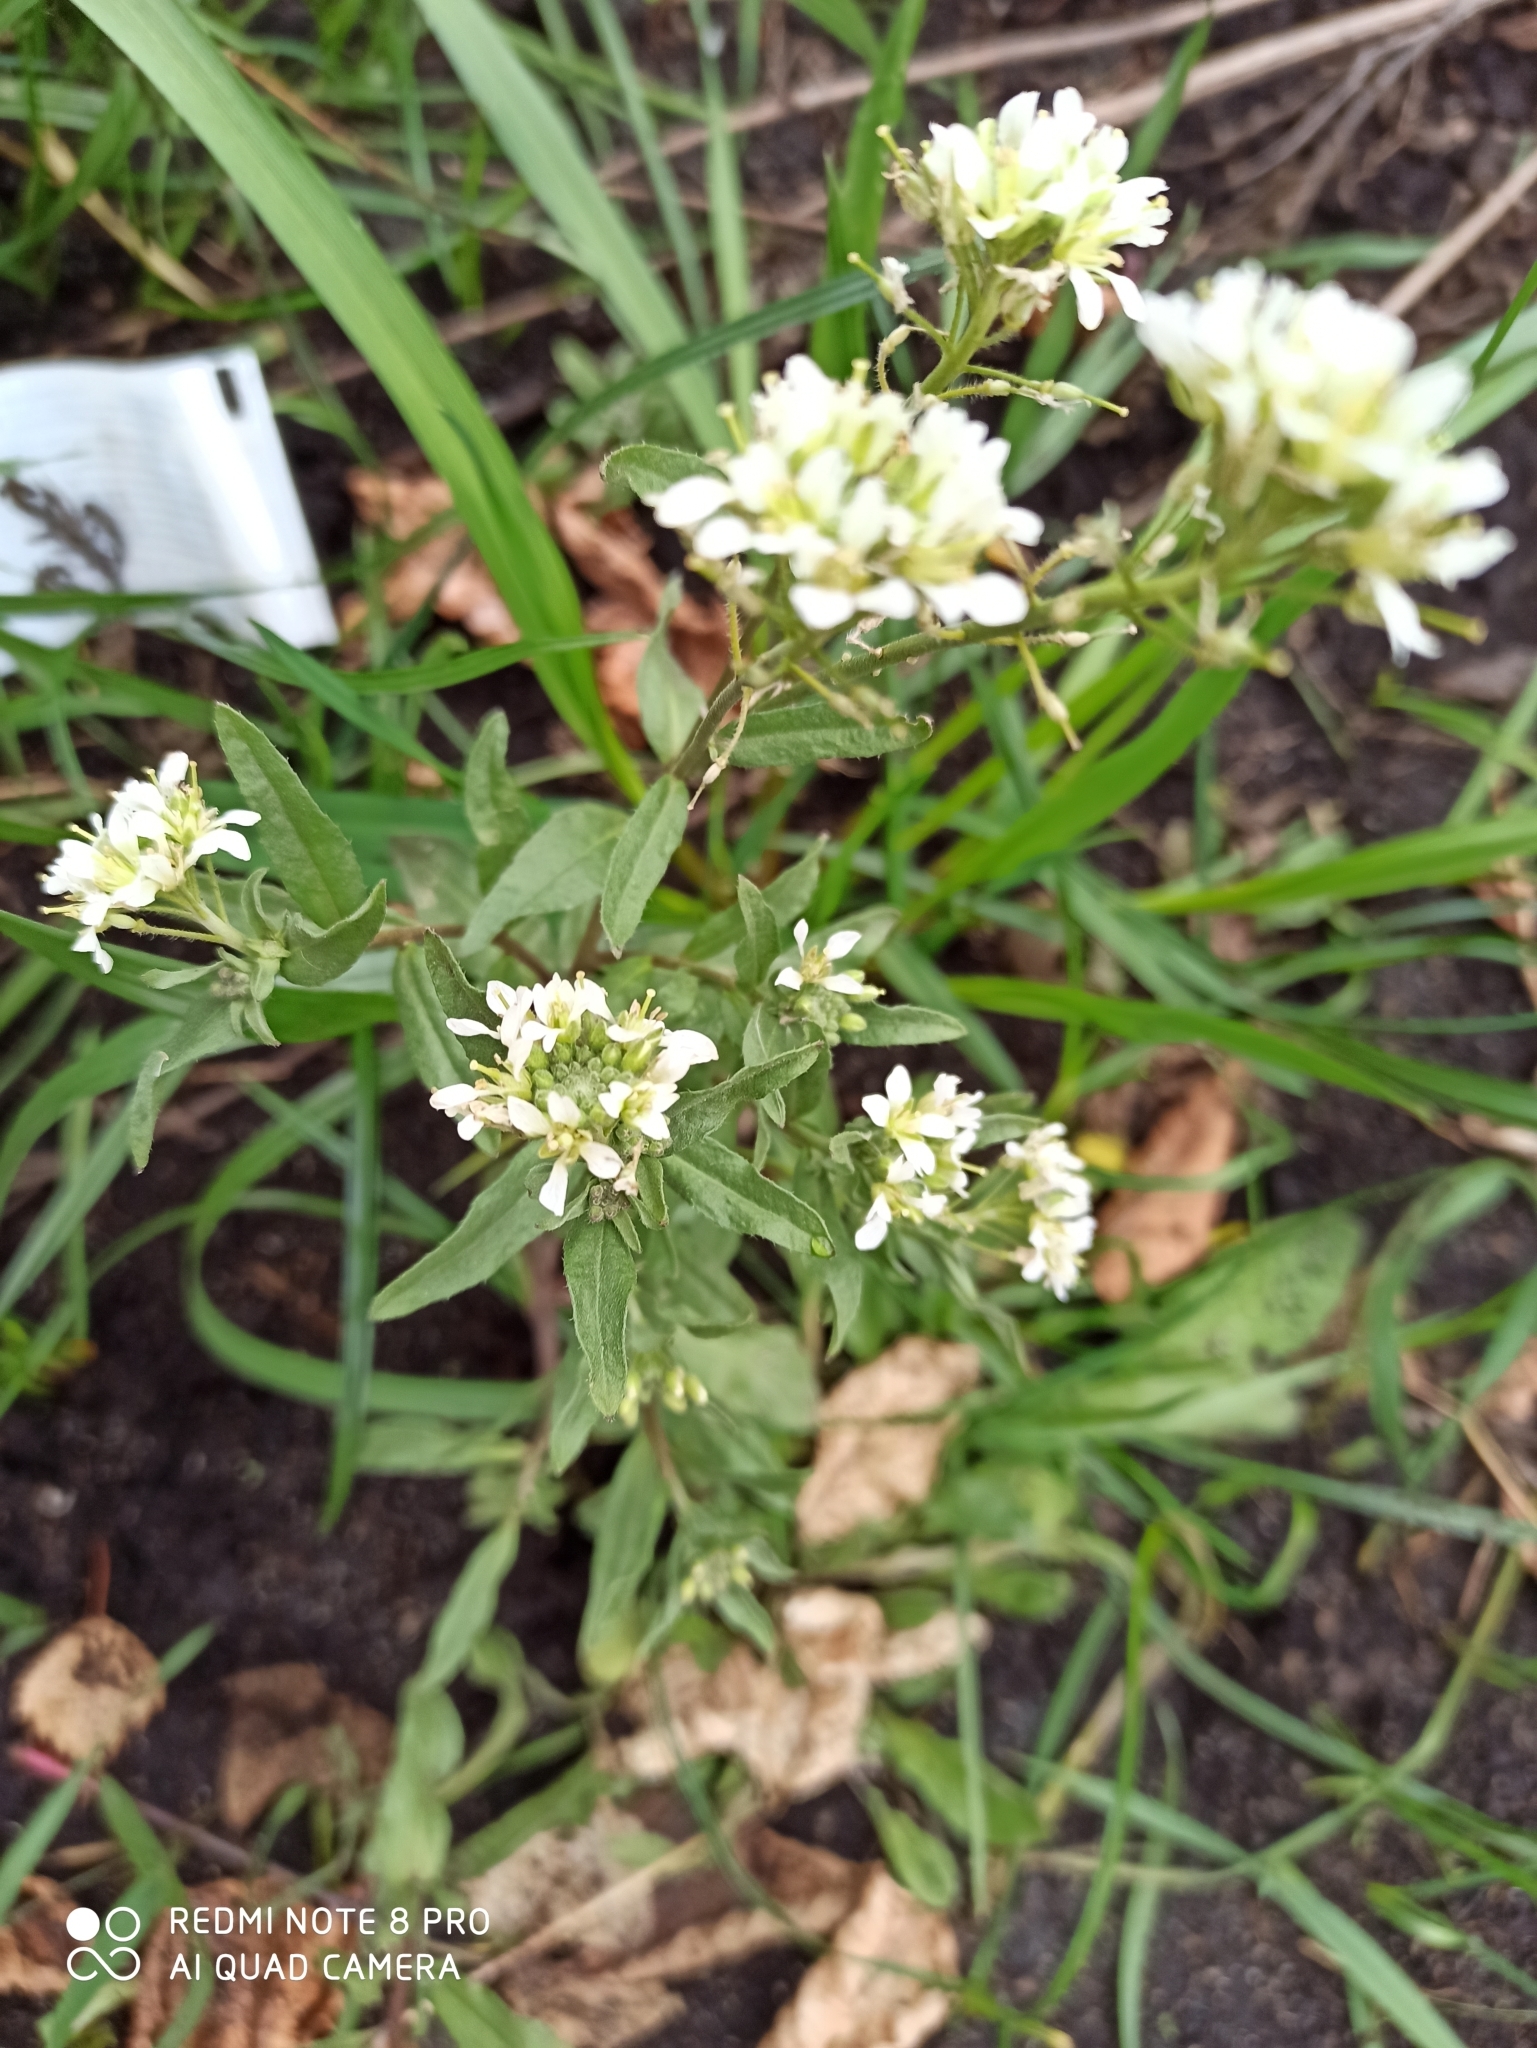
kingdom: Plantae
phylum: Tracheophyta
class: Magnoliopsida
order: Brassicales
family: Brassicaceae
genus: Berteroa
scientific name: Berteroa incana
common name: Hoary alison
